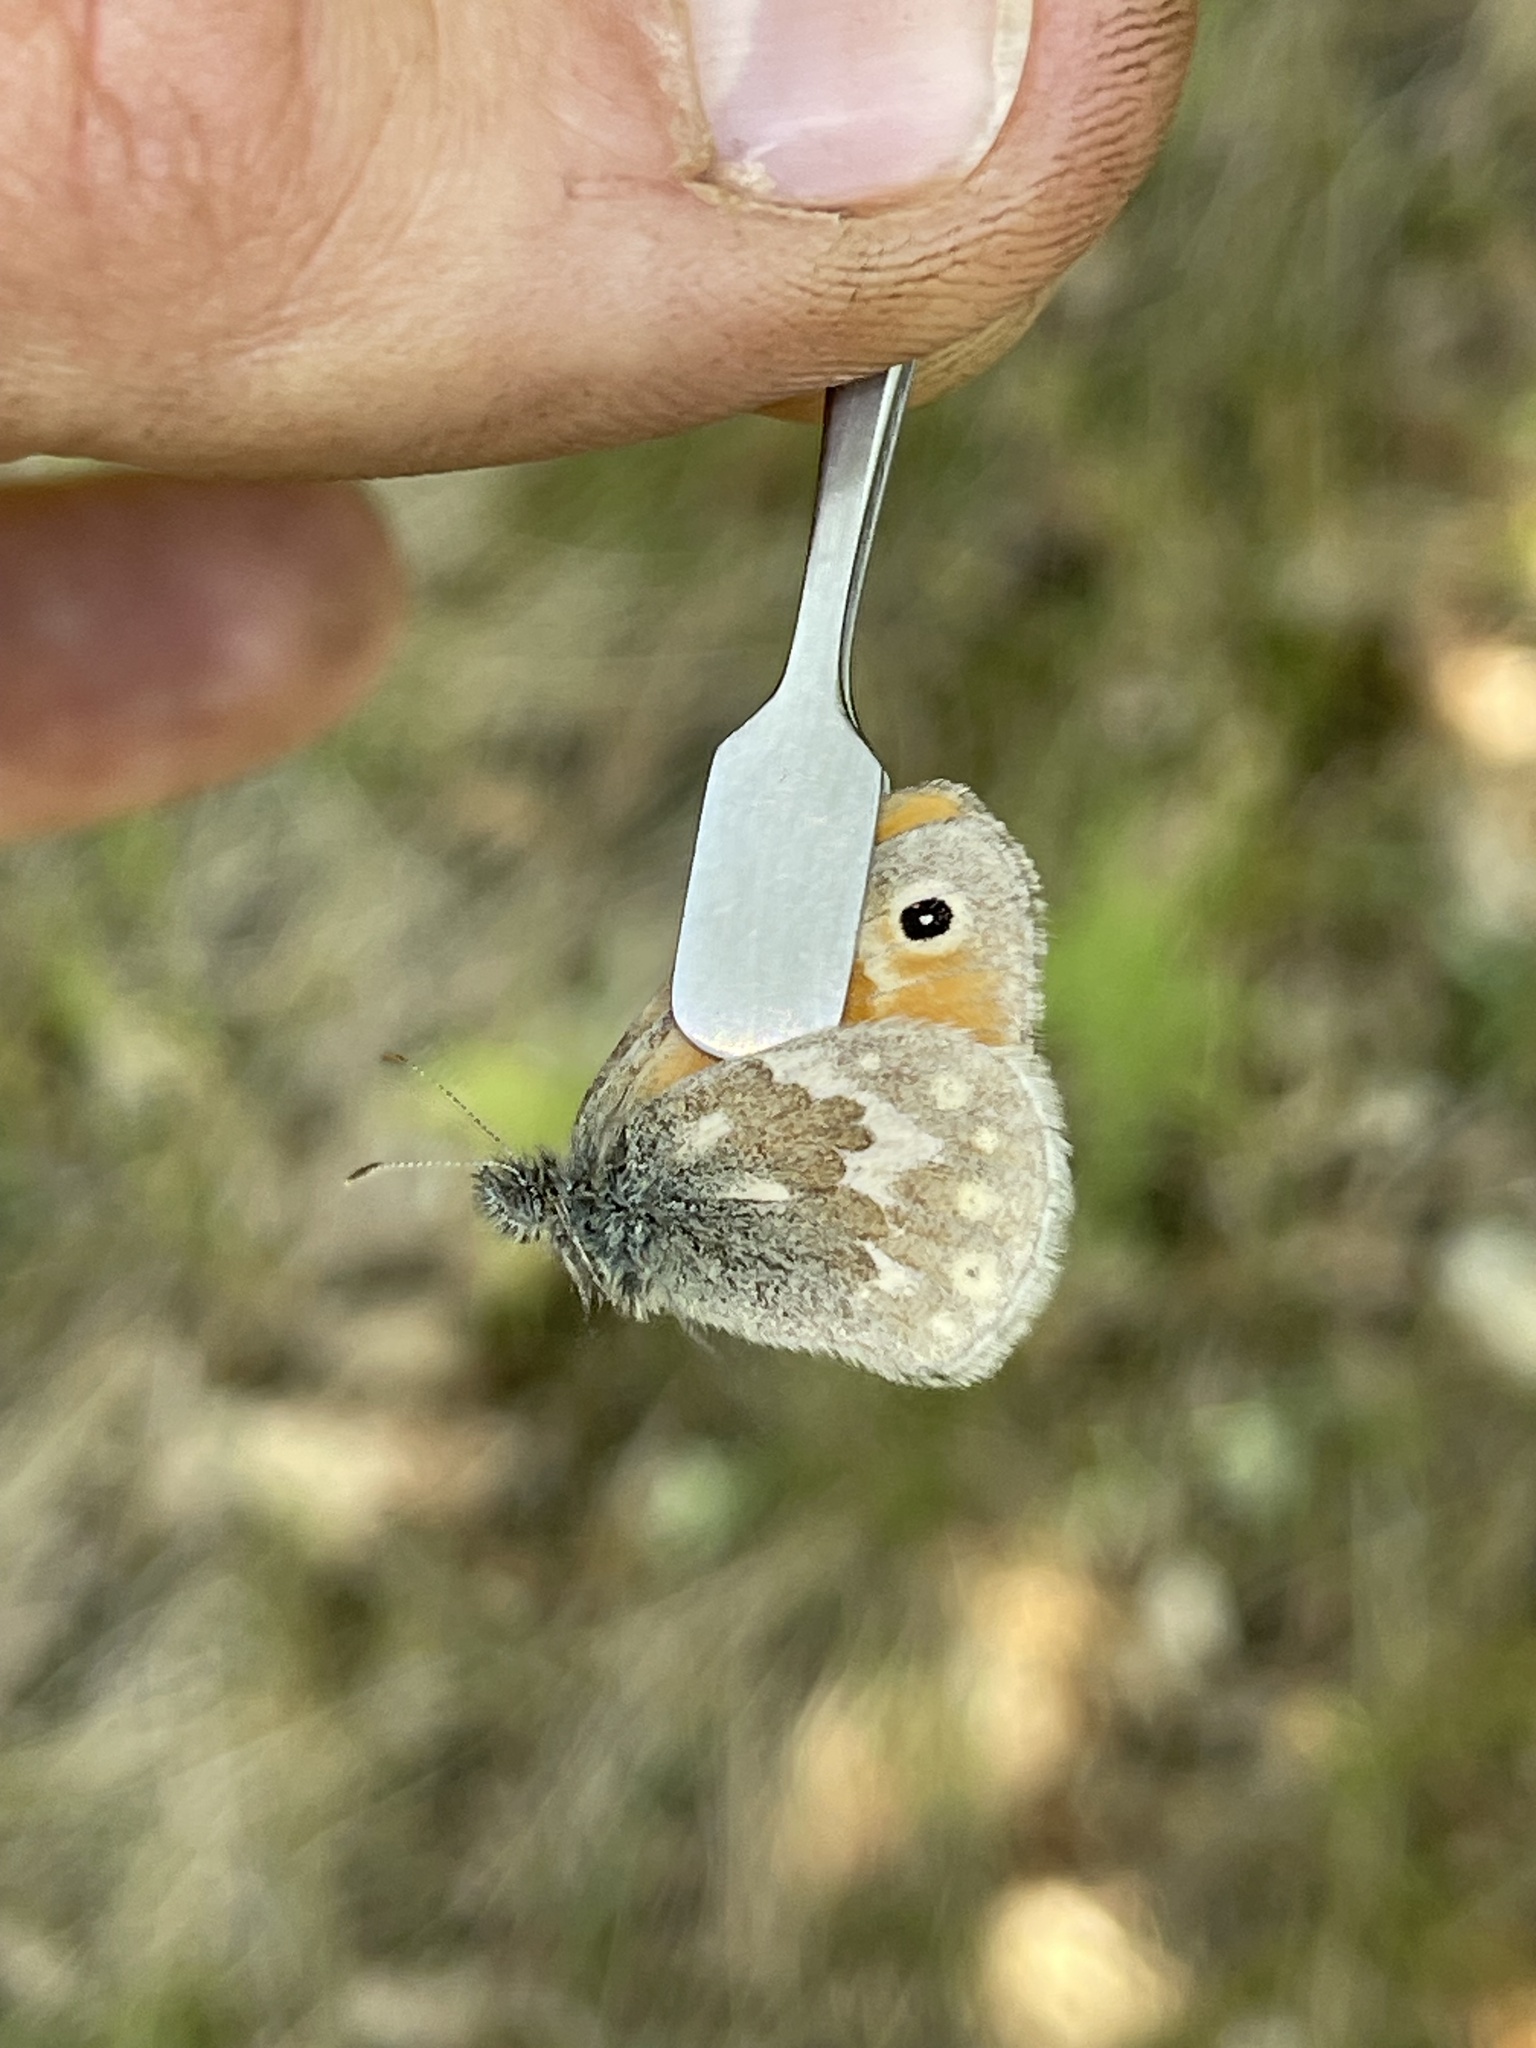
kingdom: Animalia
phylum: Arthropoda
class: Insecta
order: Lepidoptera
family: Nymphalidae
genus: Coenonympha
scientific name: Coenonympha california
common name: Common ringlet
